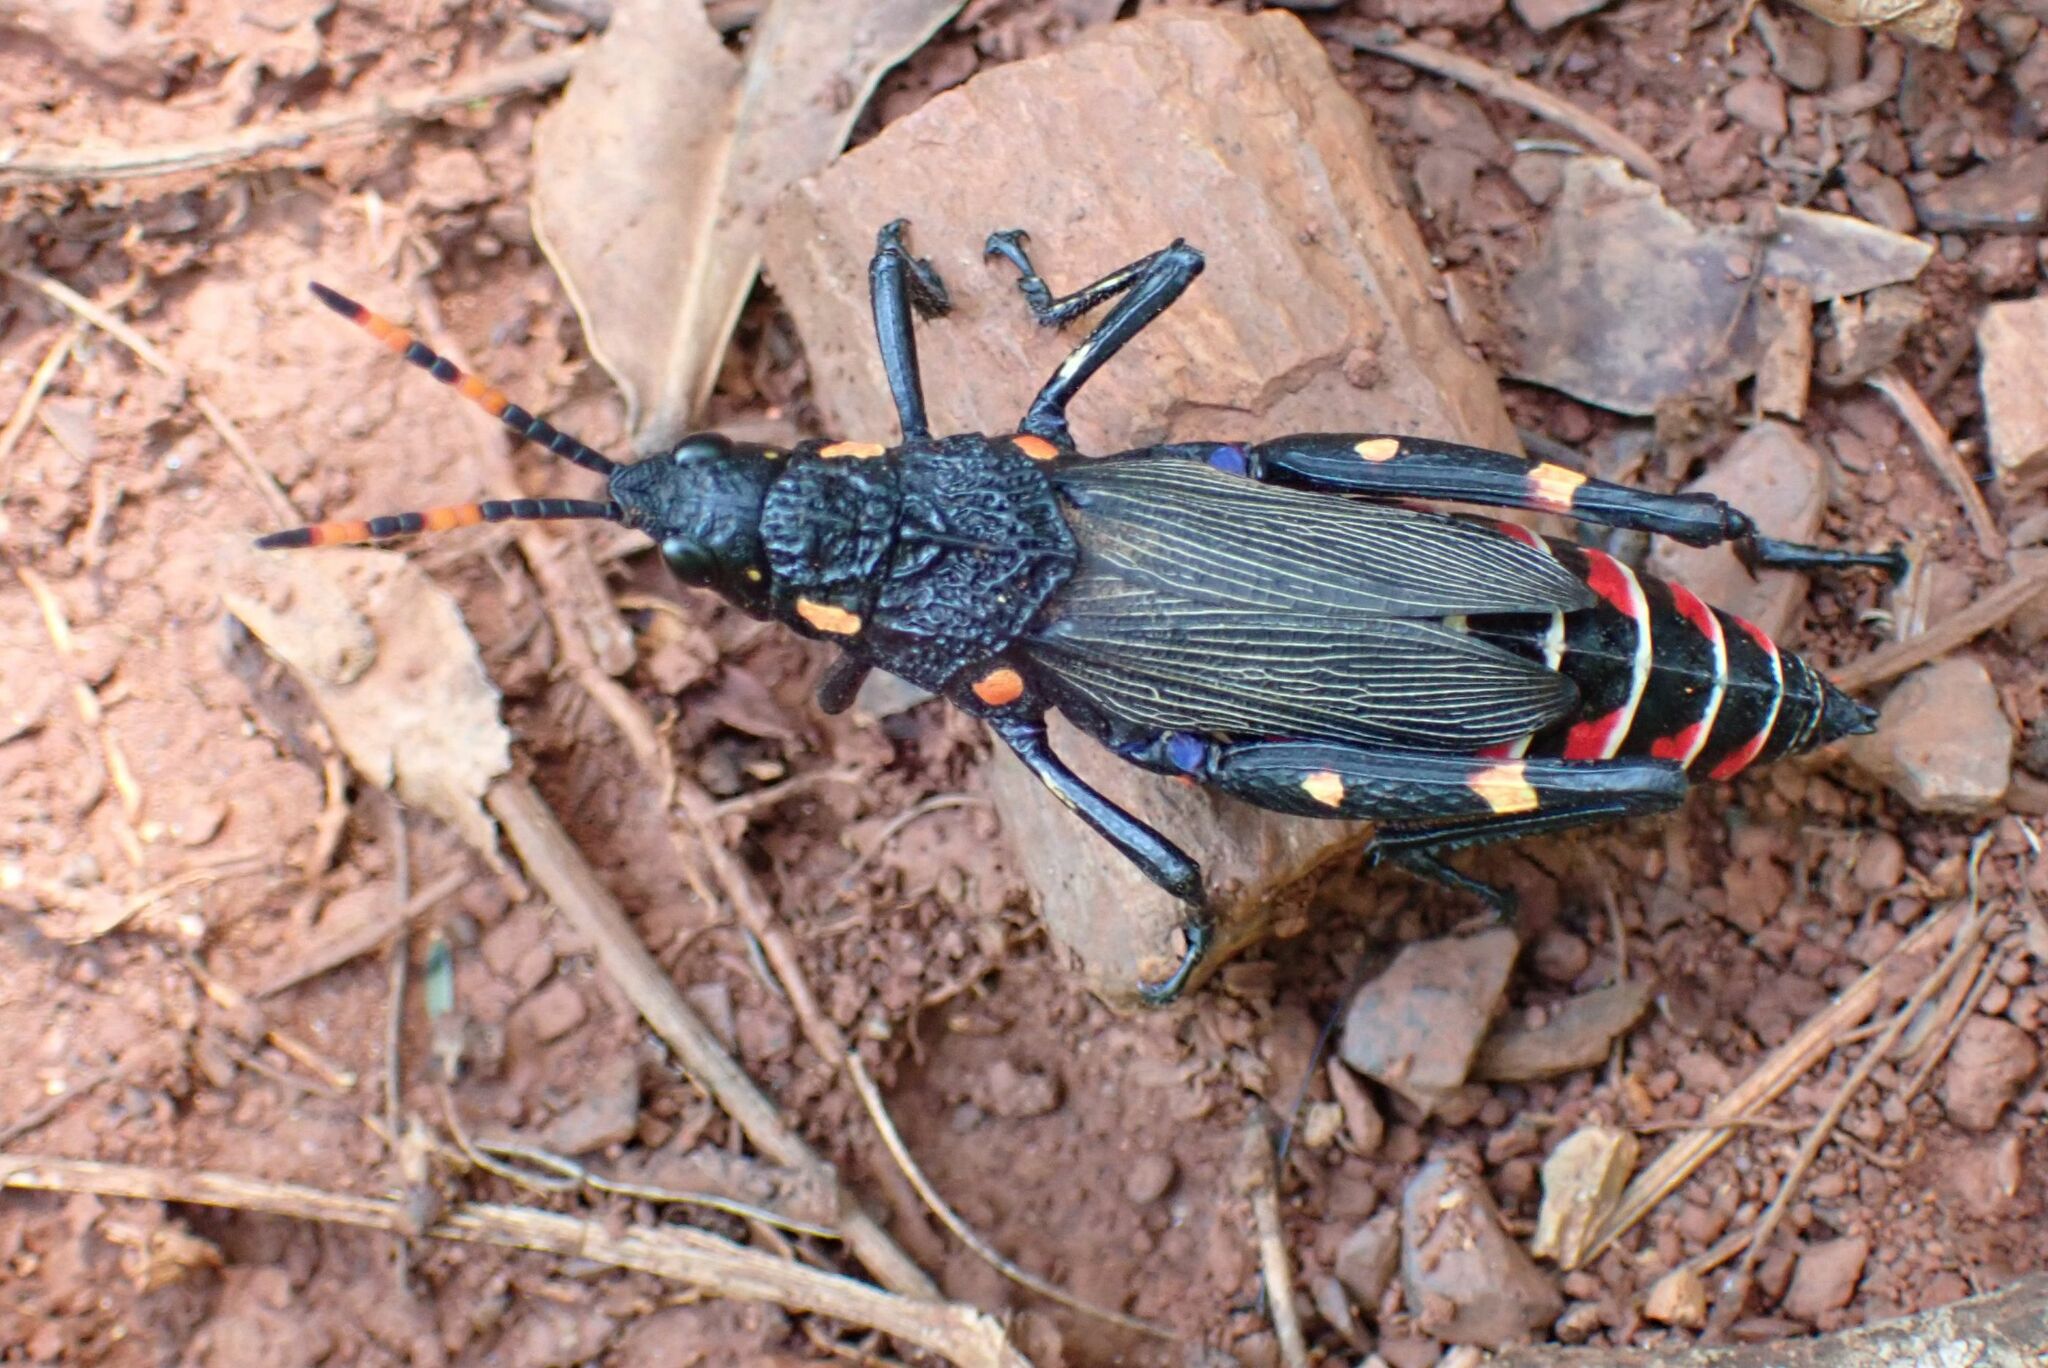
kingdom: Animalia
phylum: Arthropoda
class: Insecta
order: Orthoptera
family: Pyrgomorphidae
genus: Maura
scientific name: Maura rubroornata
